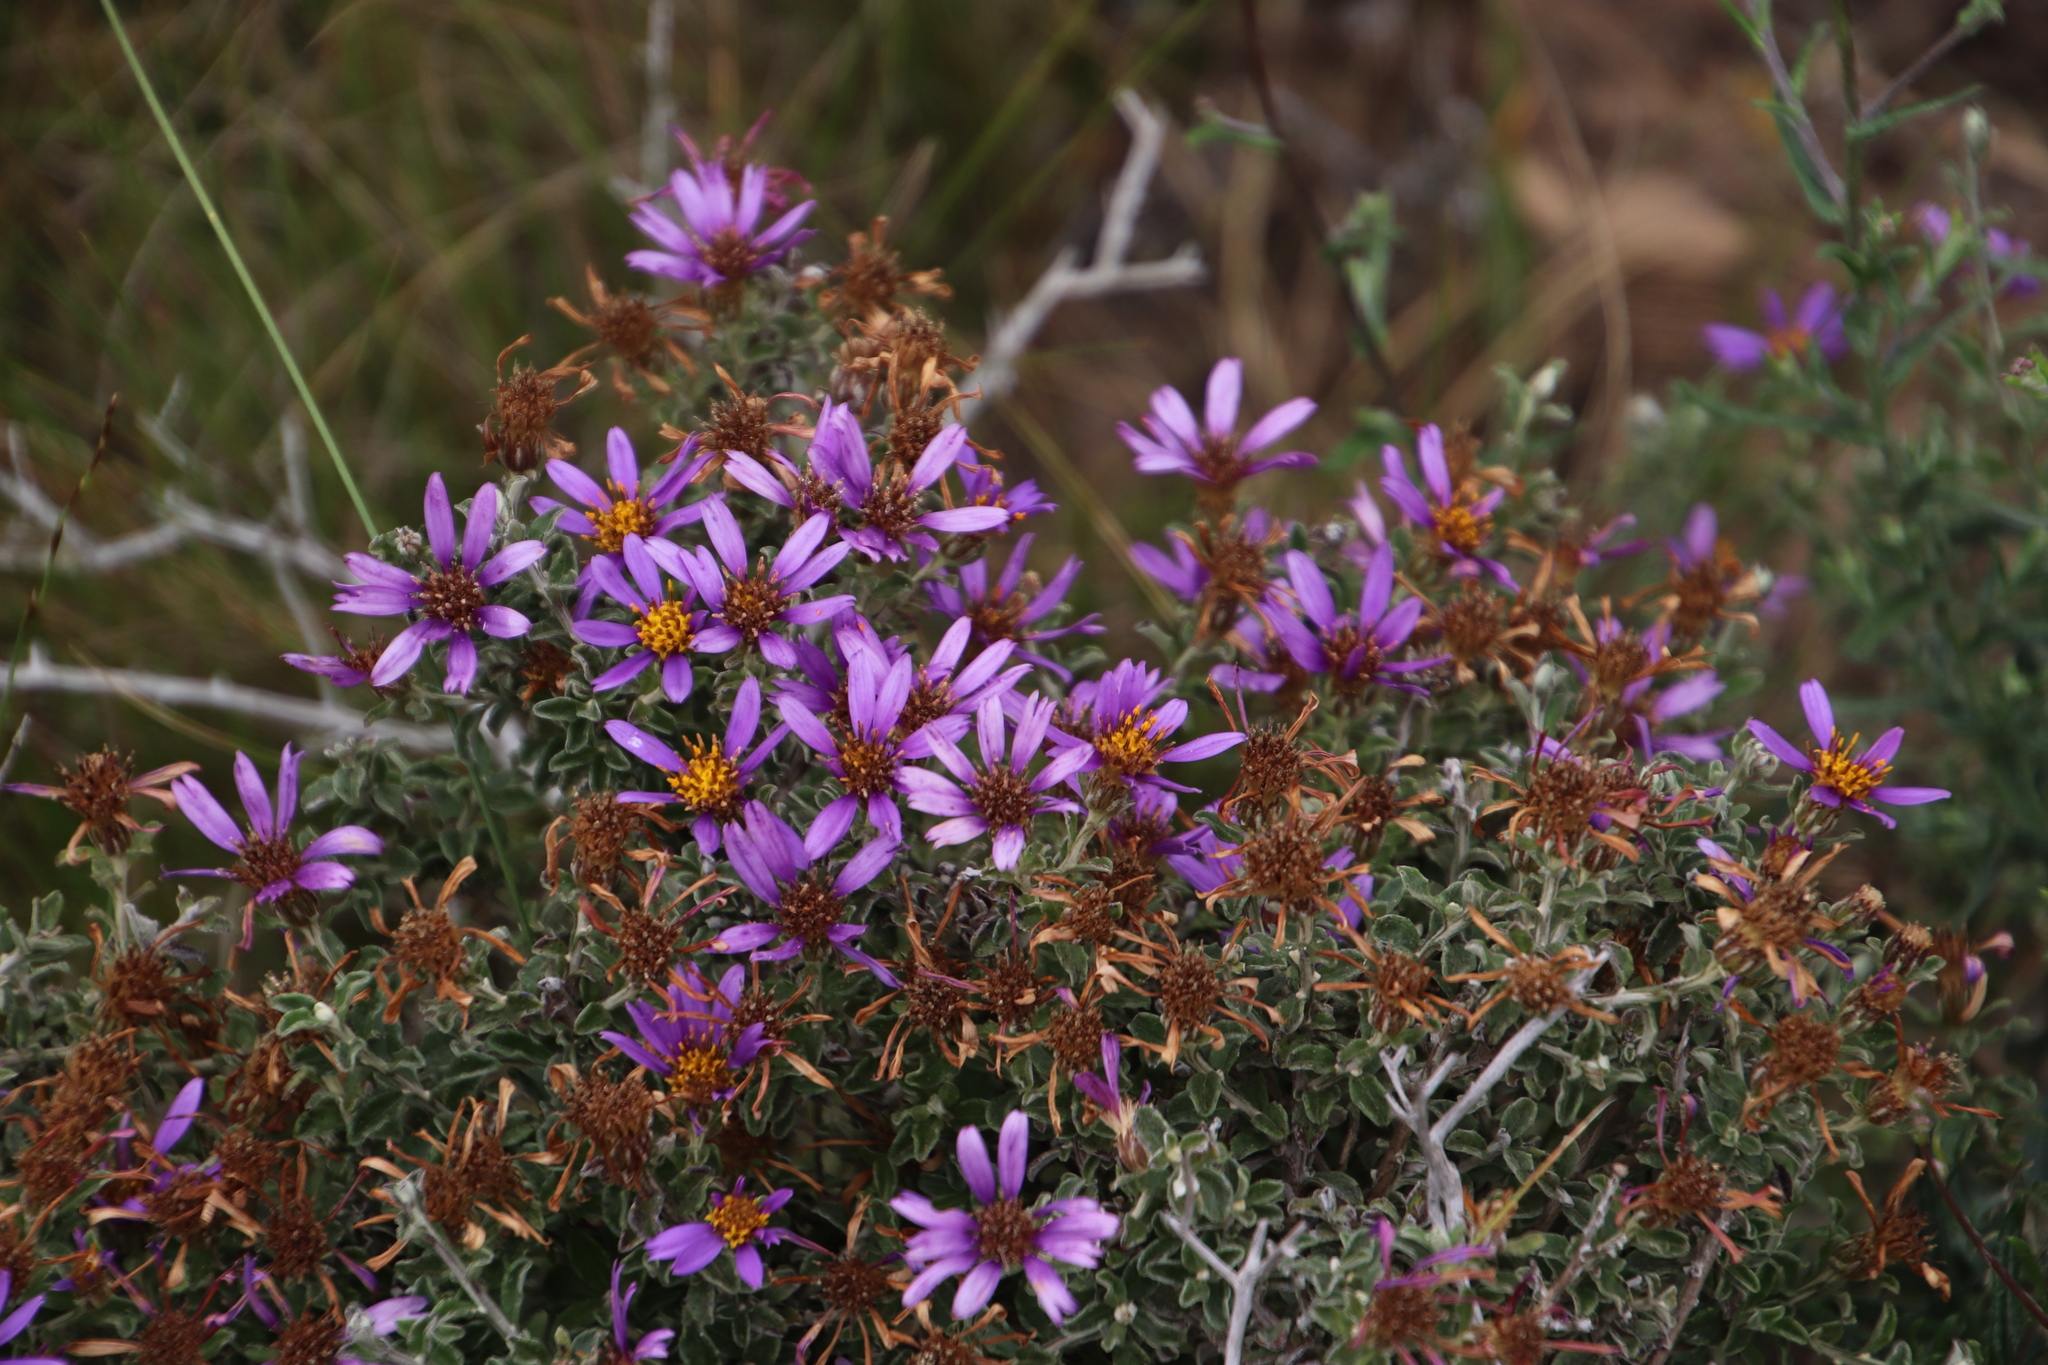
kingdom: Plantae
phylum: Tracheophyta
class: Magnoliopsida
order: Asterales
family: Asteraceae
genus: Printzia
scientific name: Printzia polifolia
